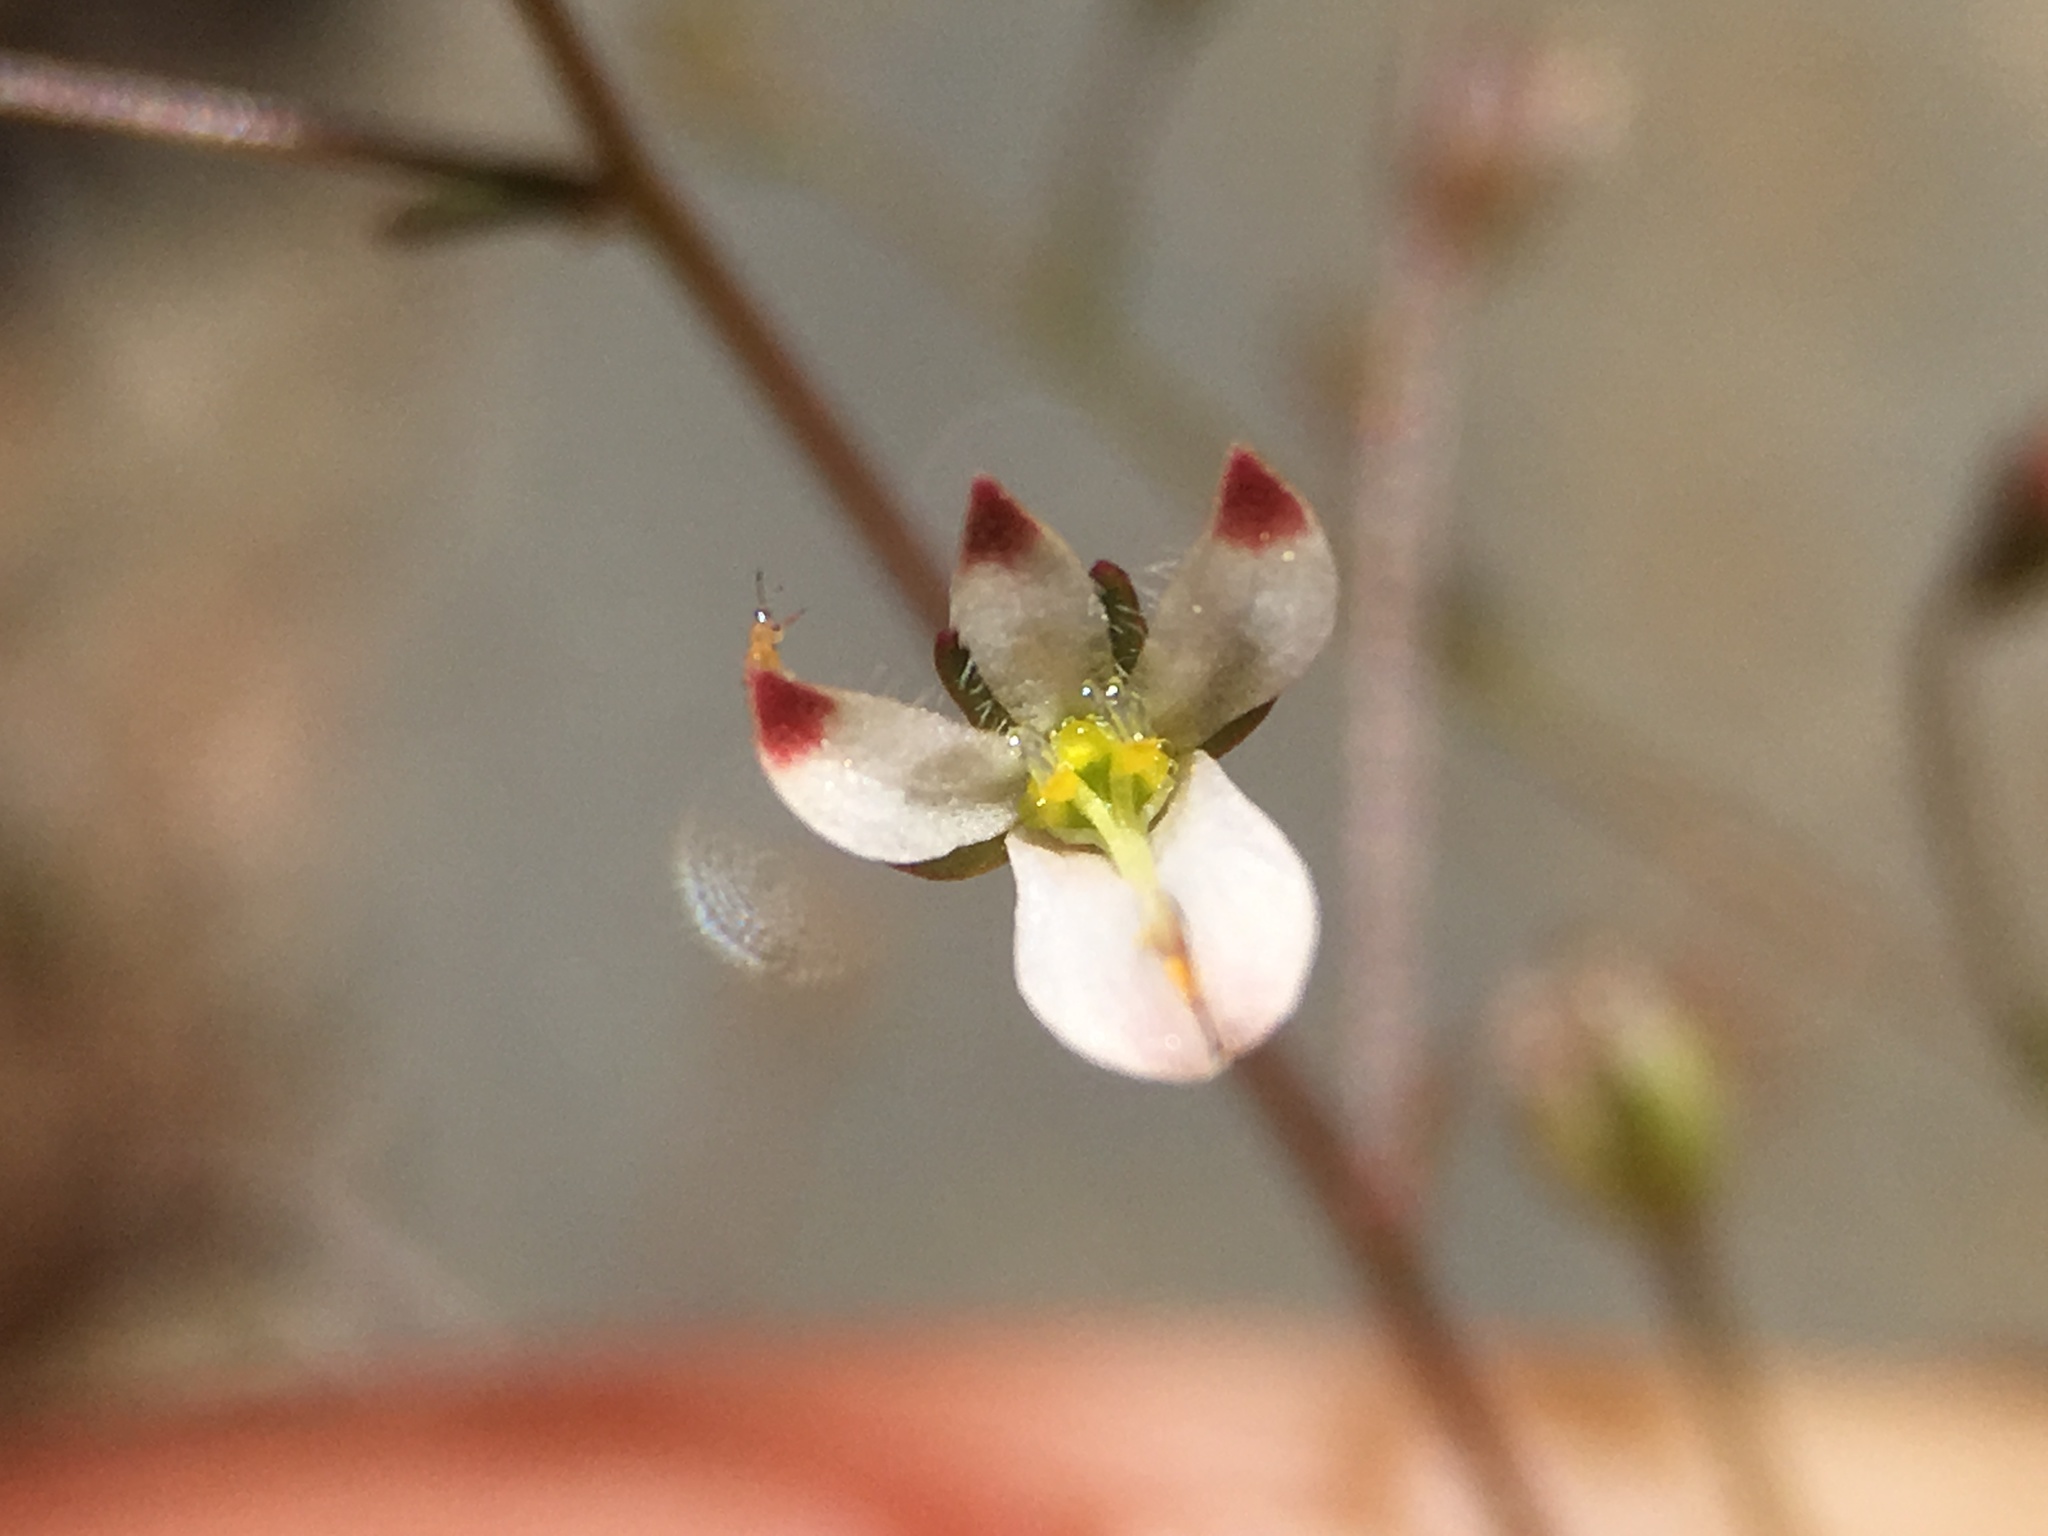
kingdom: Plantae
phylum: Tracheophyta
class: Magnoliopsida
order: Asterales
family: Campanulaceae
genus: Nemacladus
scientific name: Nemacladus orientalis
